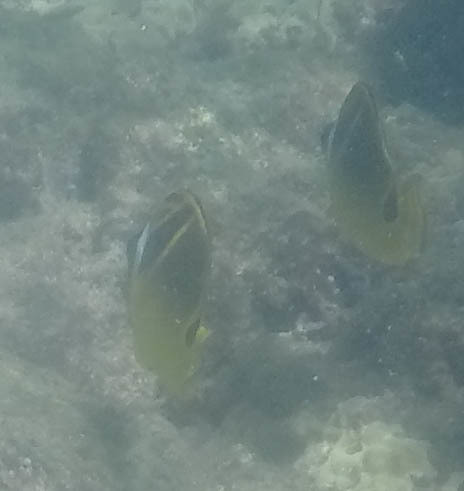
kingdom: Animalia
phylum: Chordata
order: Perciformes
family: Chaetodontidae
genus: Chaetodon
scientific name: Chaetodon lunula
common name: Raccoon butterflyfish
